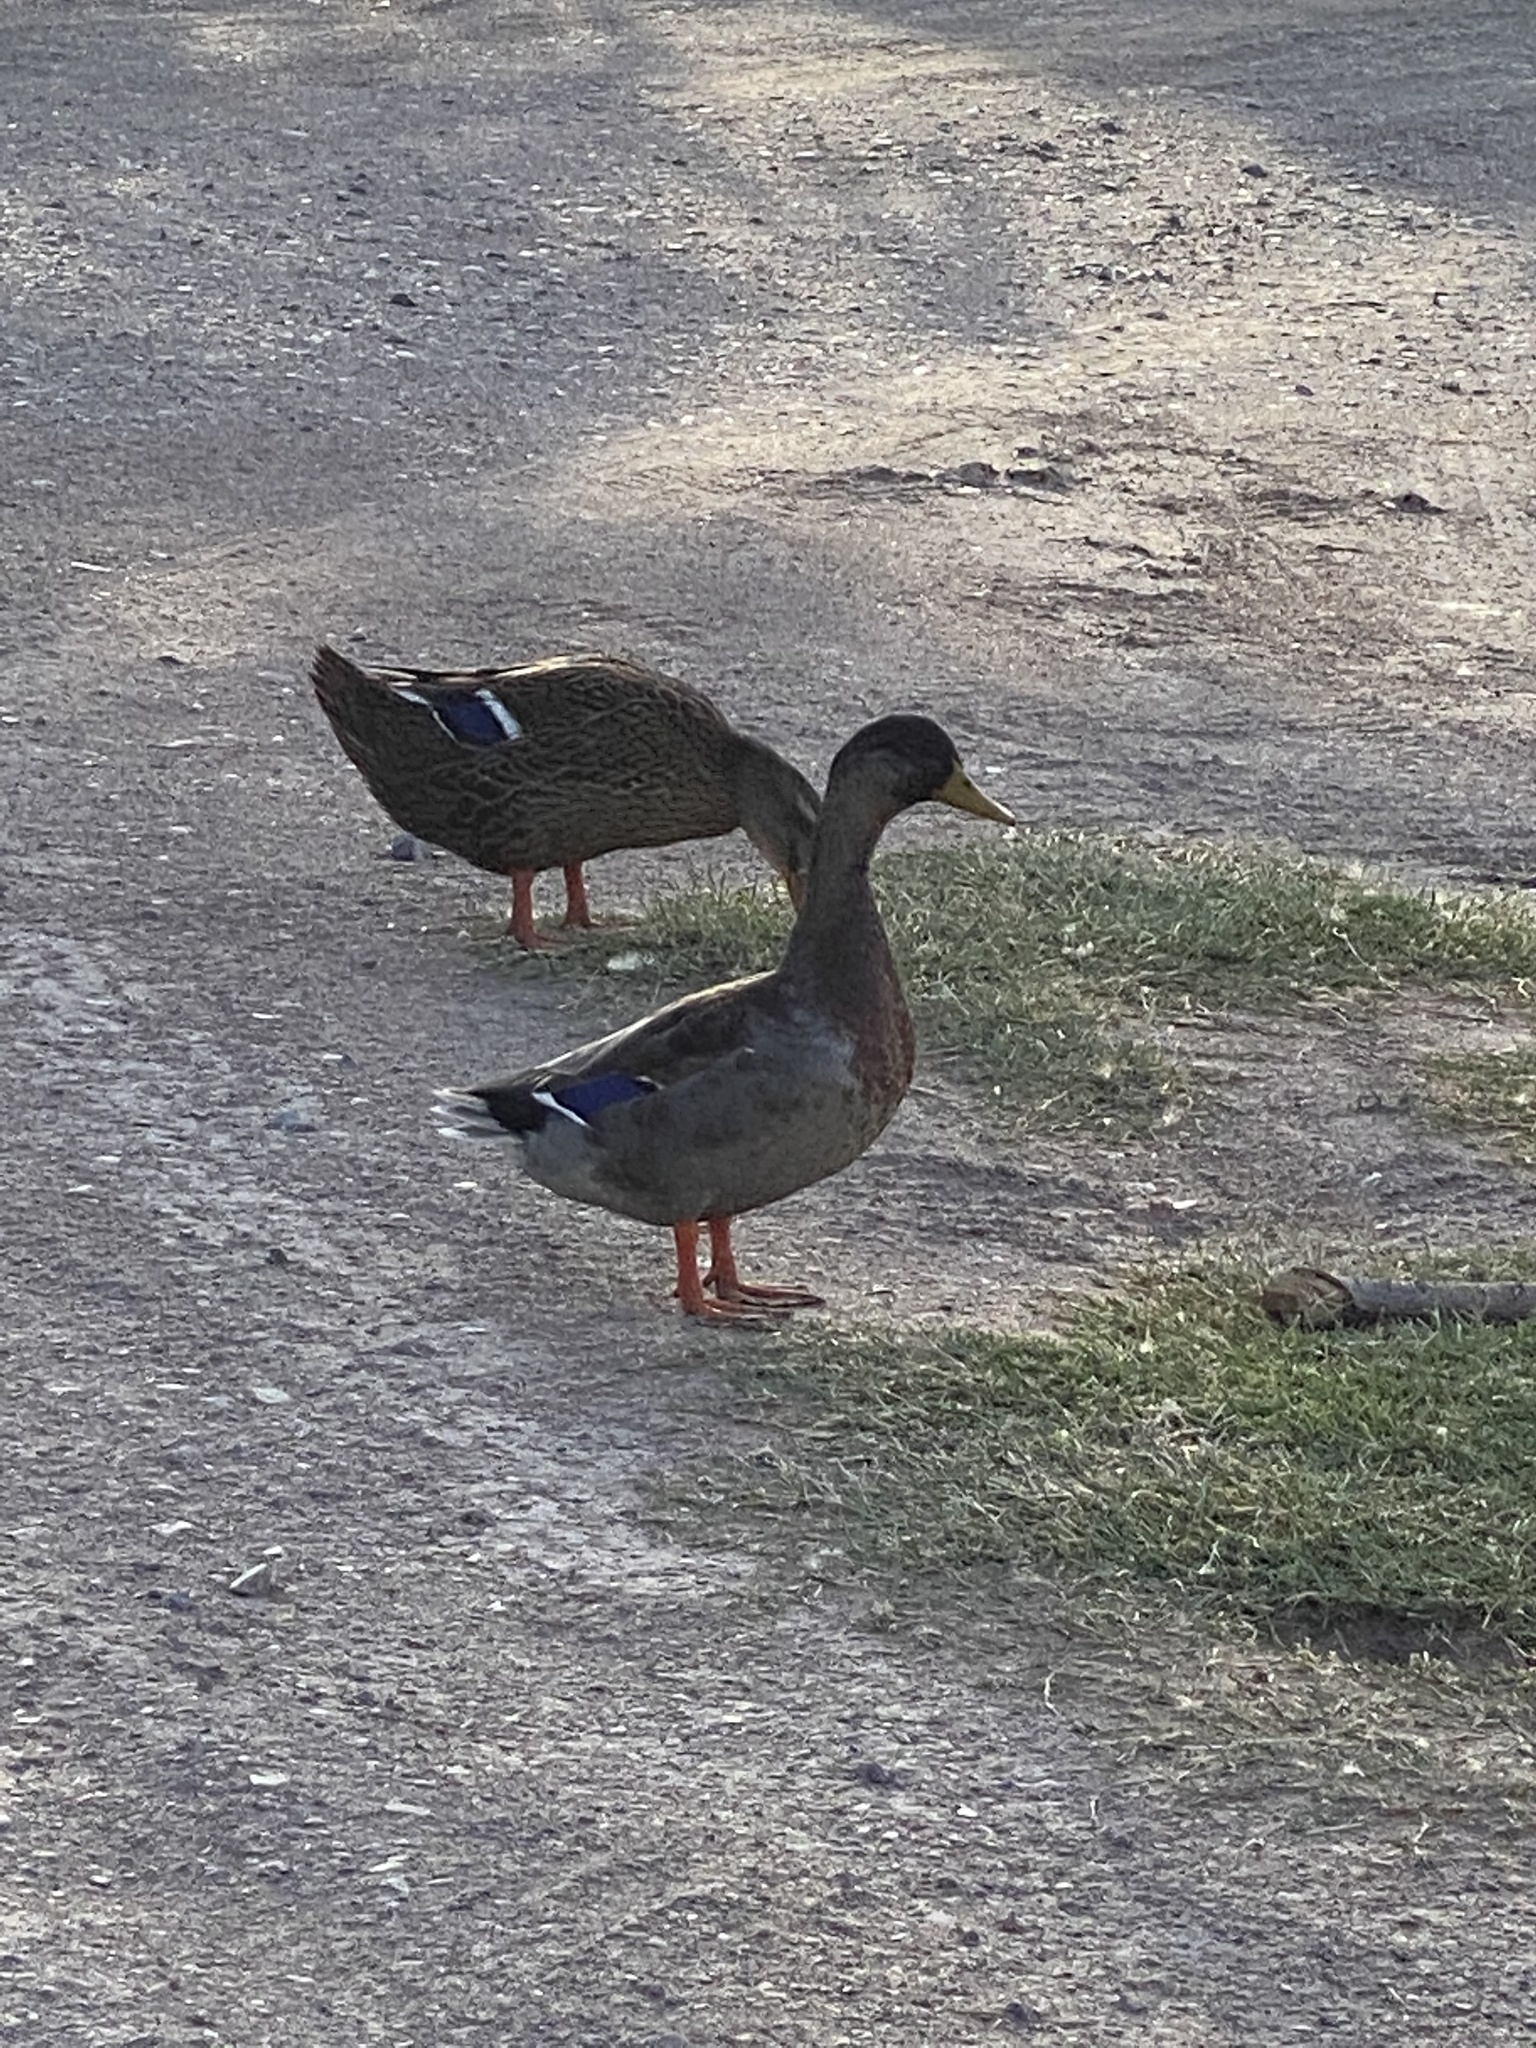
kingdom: Animalia
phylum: Chordata
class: Aves
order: Anseriformes
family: Anatidae
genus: Anas
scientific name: Anas platyrhynchos
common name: Mallard
